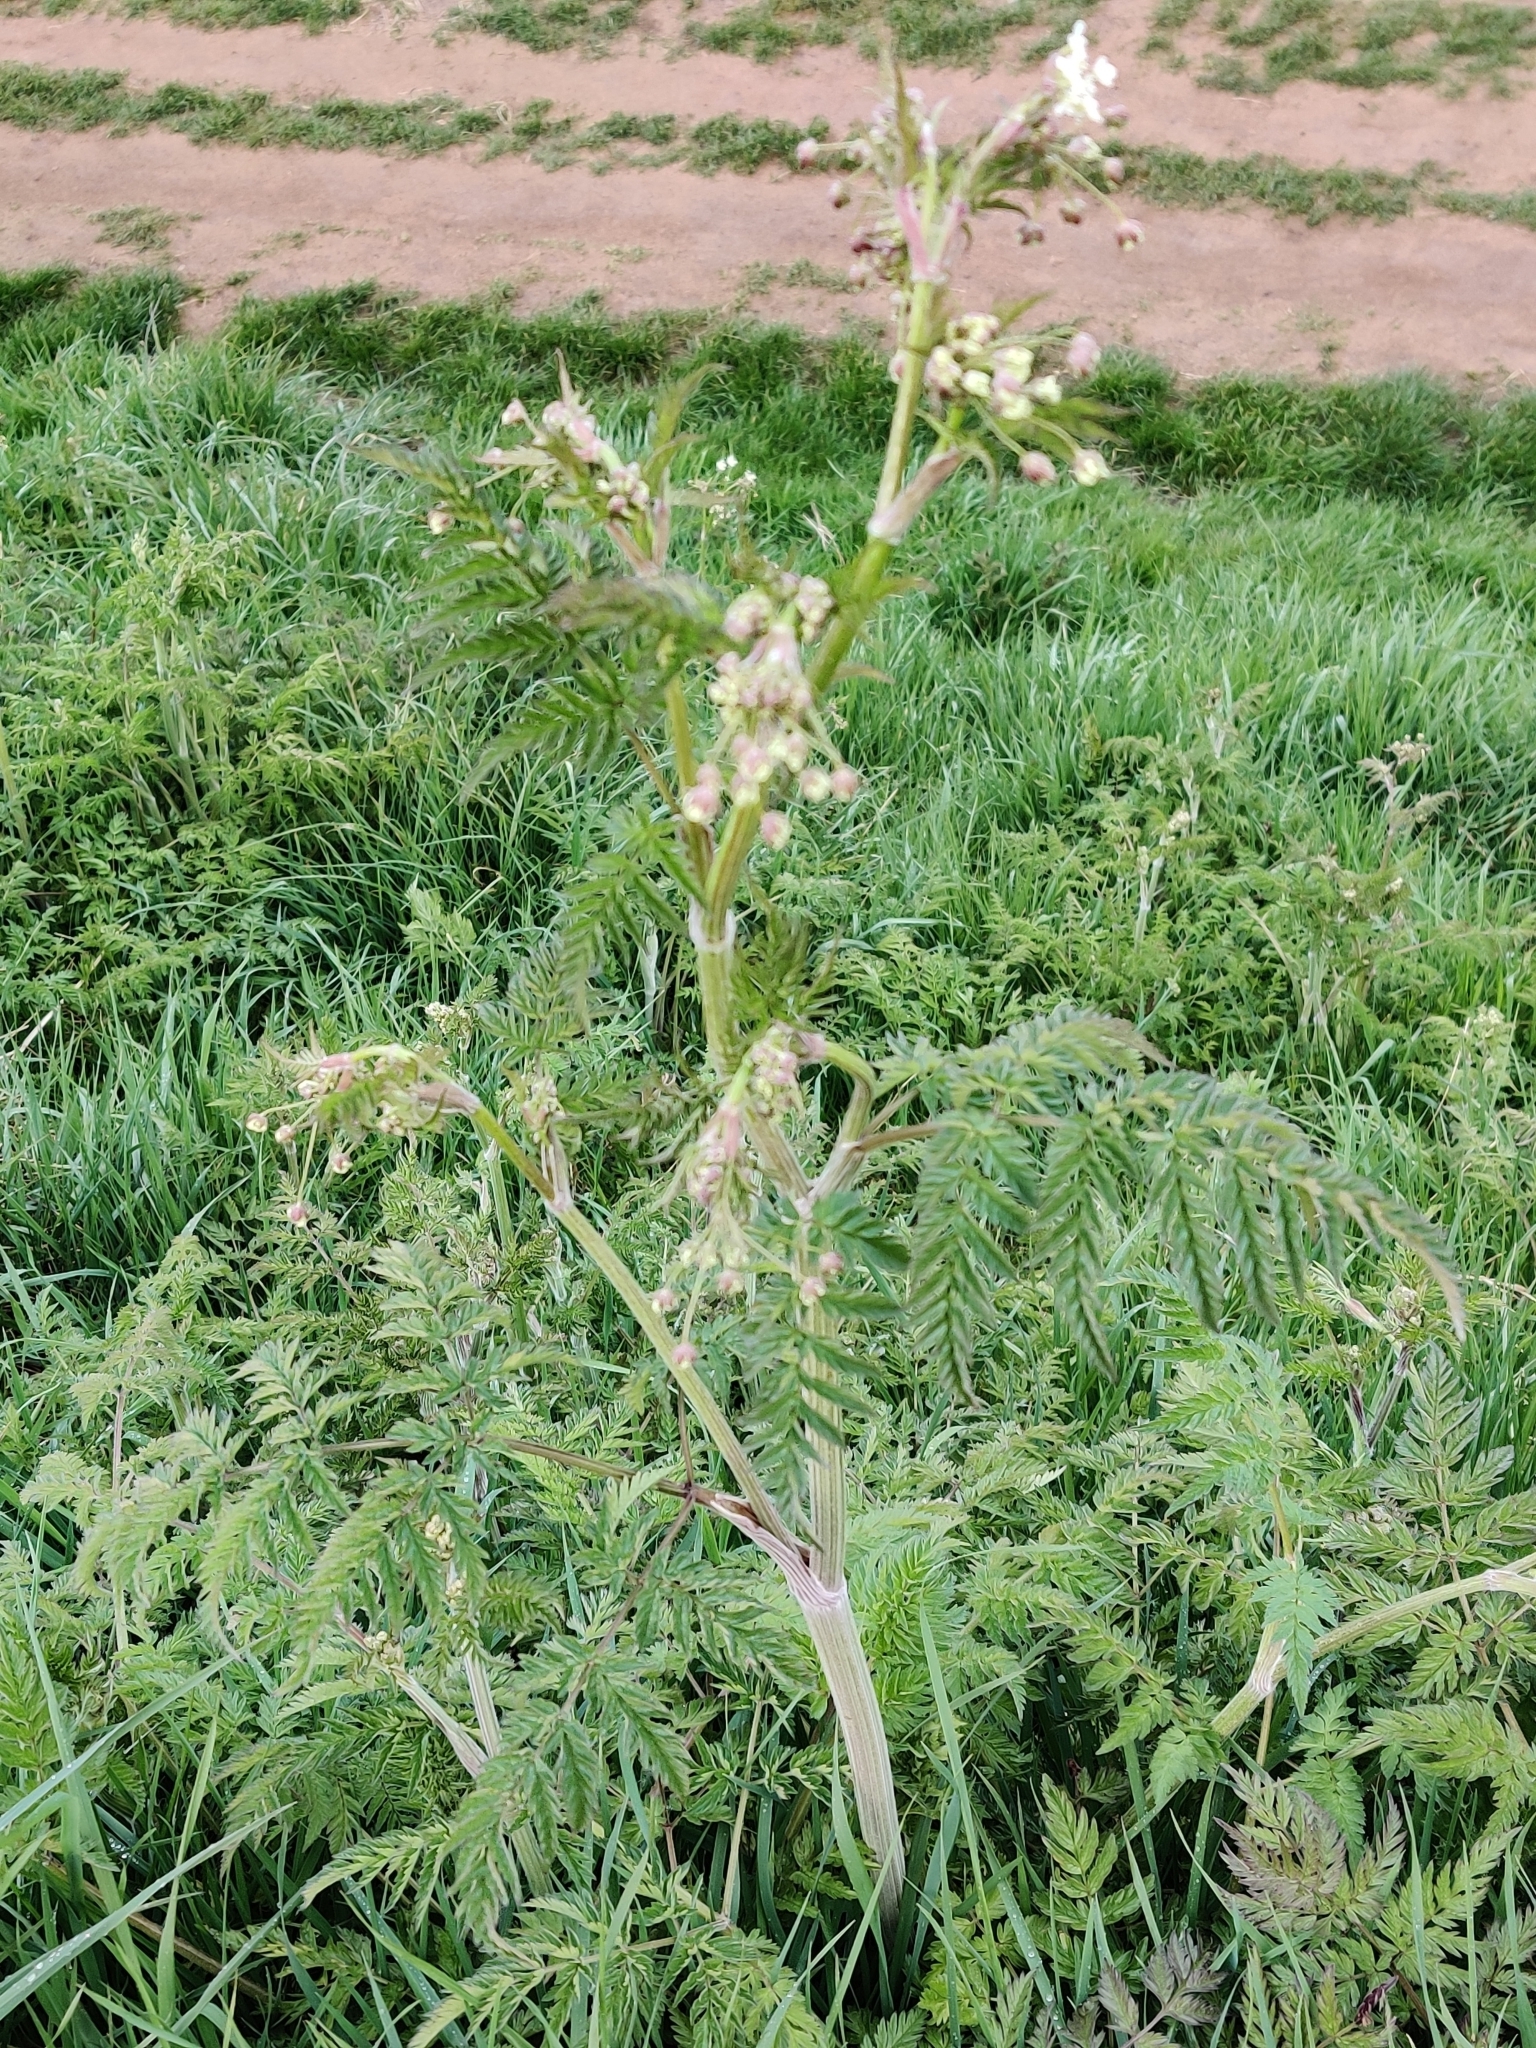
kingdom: Plantae
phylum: Tracheophyta
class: Magnoliopsida
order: Apiales
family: Apiaceae
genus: Anthriscus
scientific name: Anthriscus sylvestris
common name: Cow parsley
